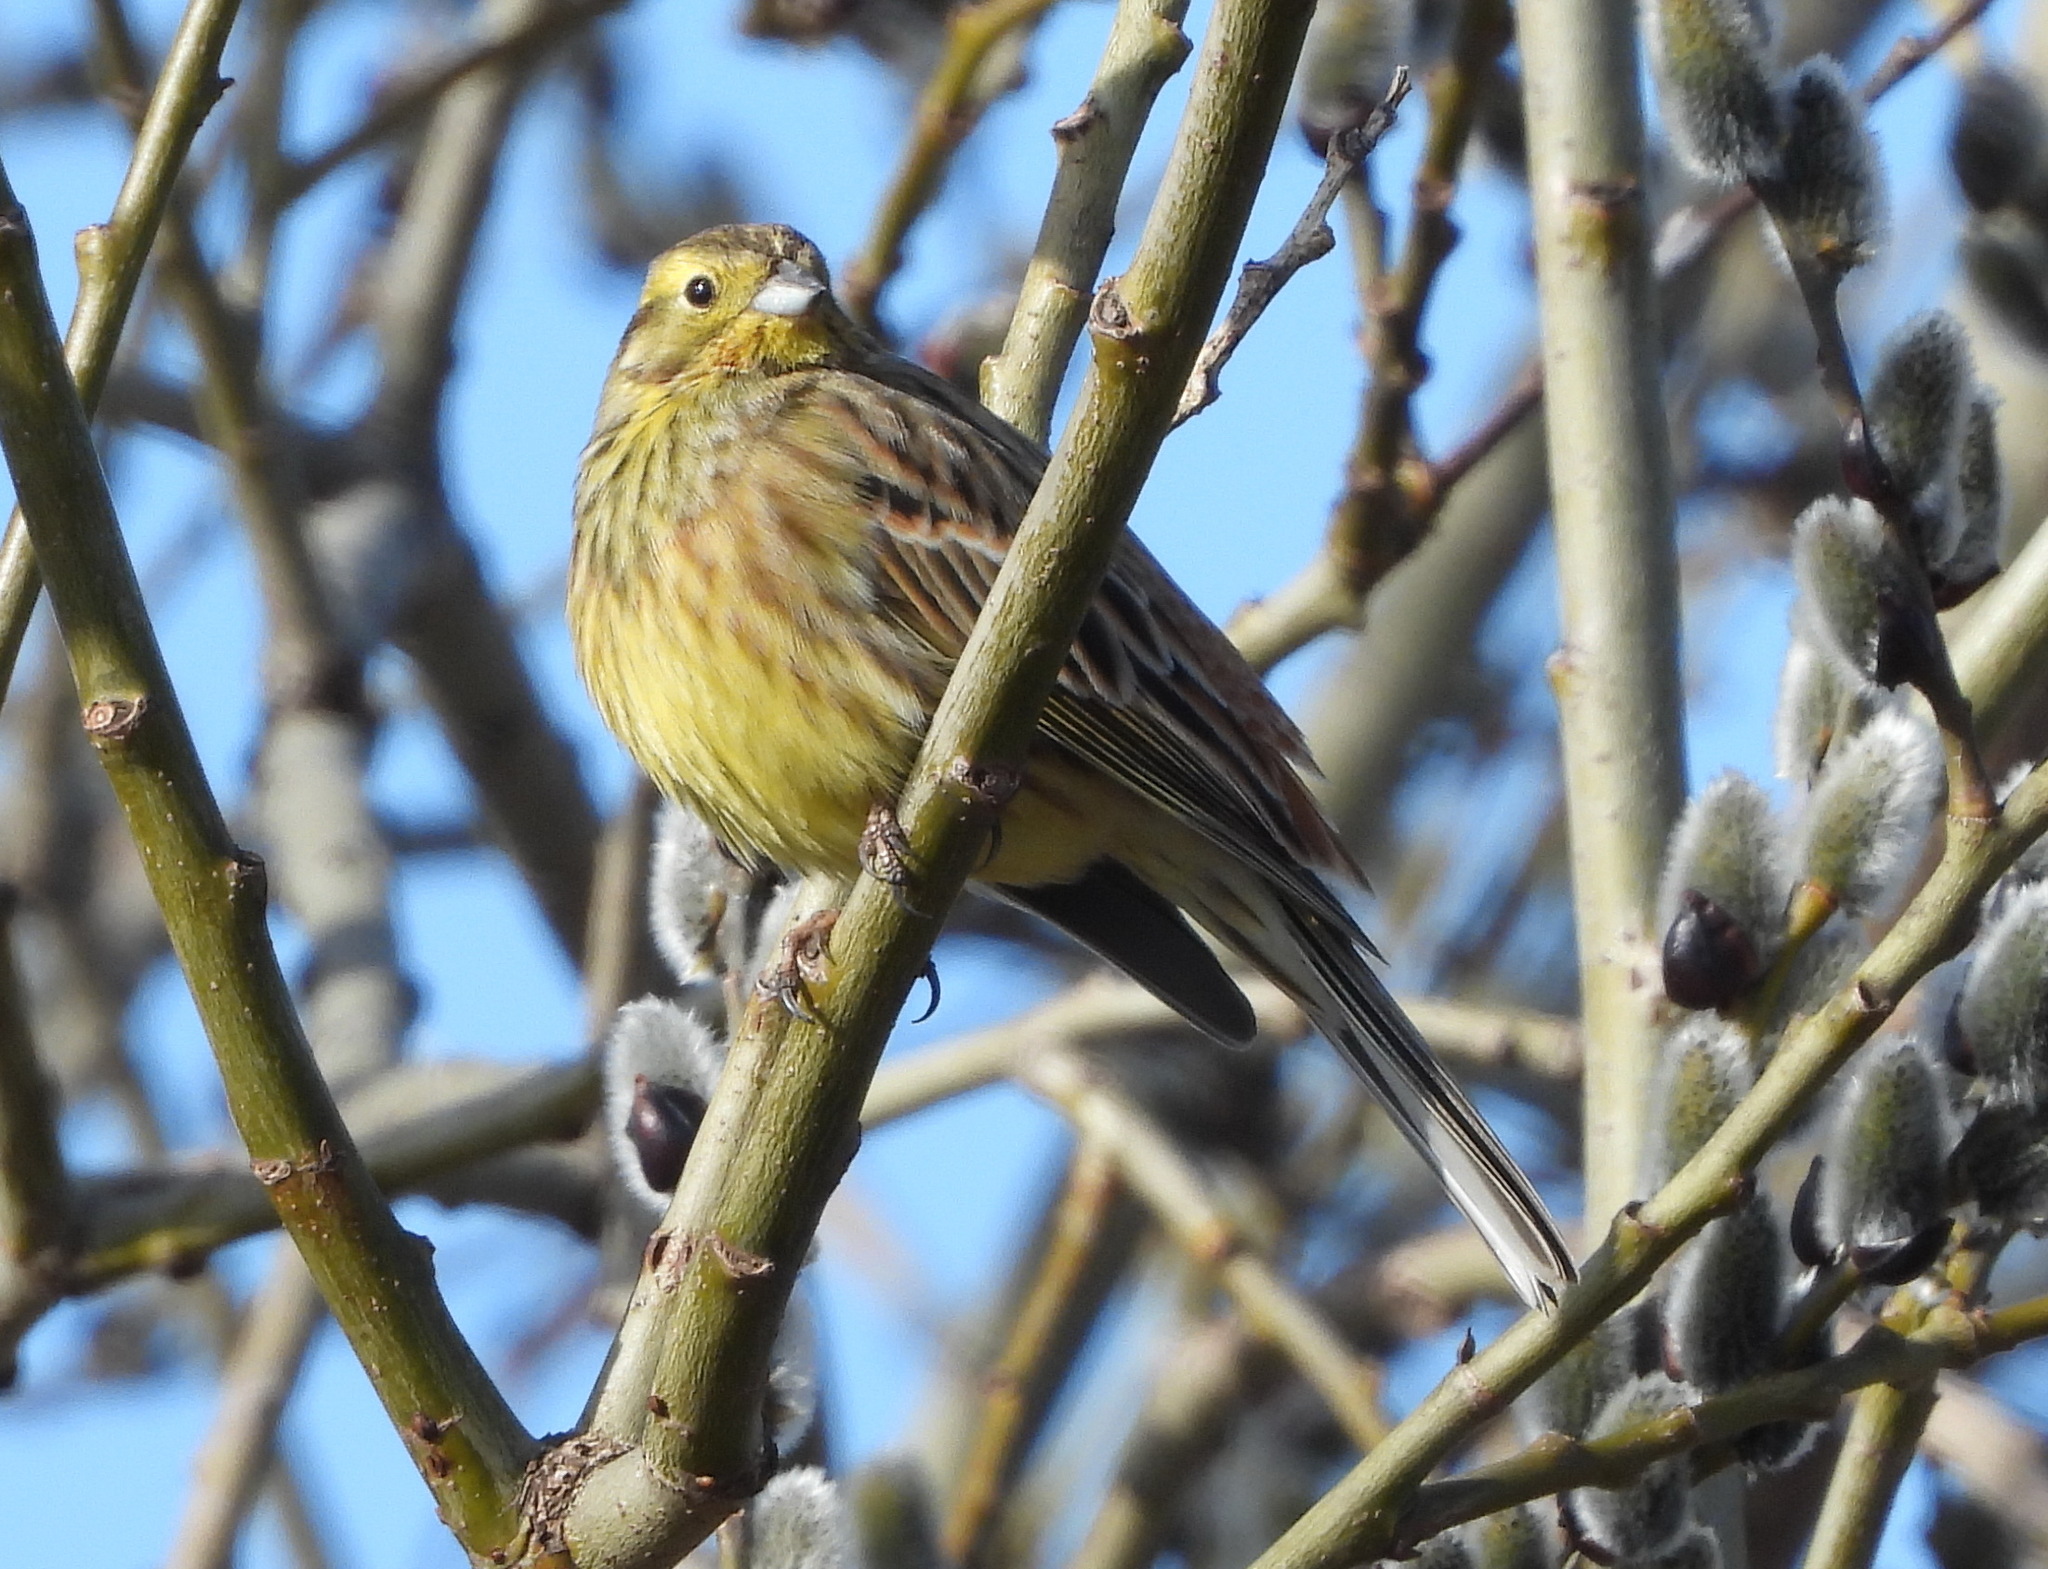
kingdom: Animalia
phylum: Chordata
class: Aves
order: Passeriformes
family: Emberizidae
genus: Emberiza
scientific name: Emberiza citrinella
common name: Yellowhammer
